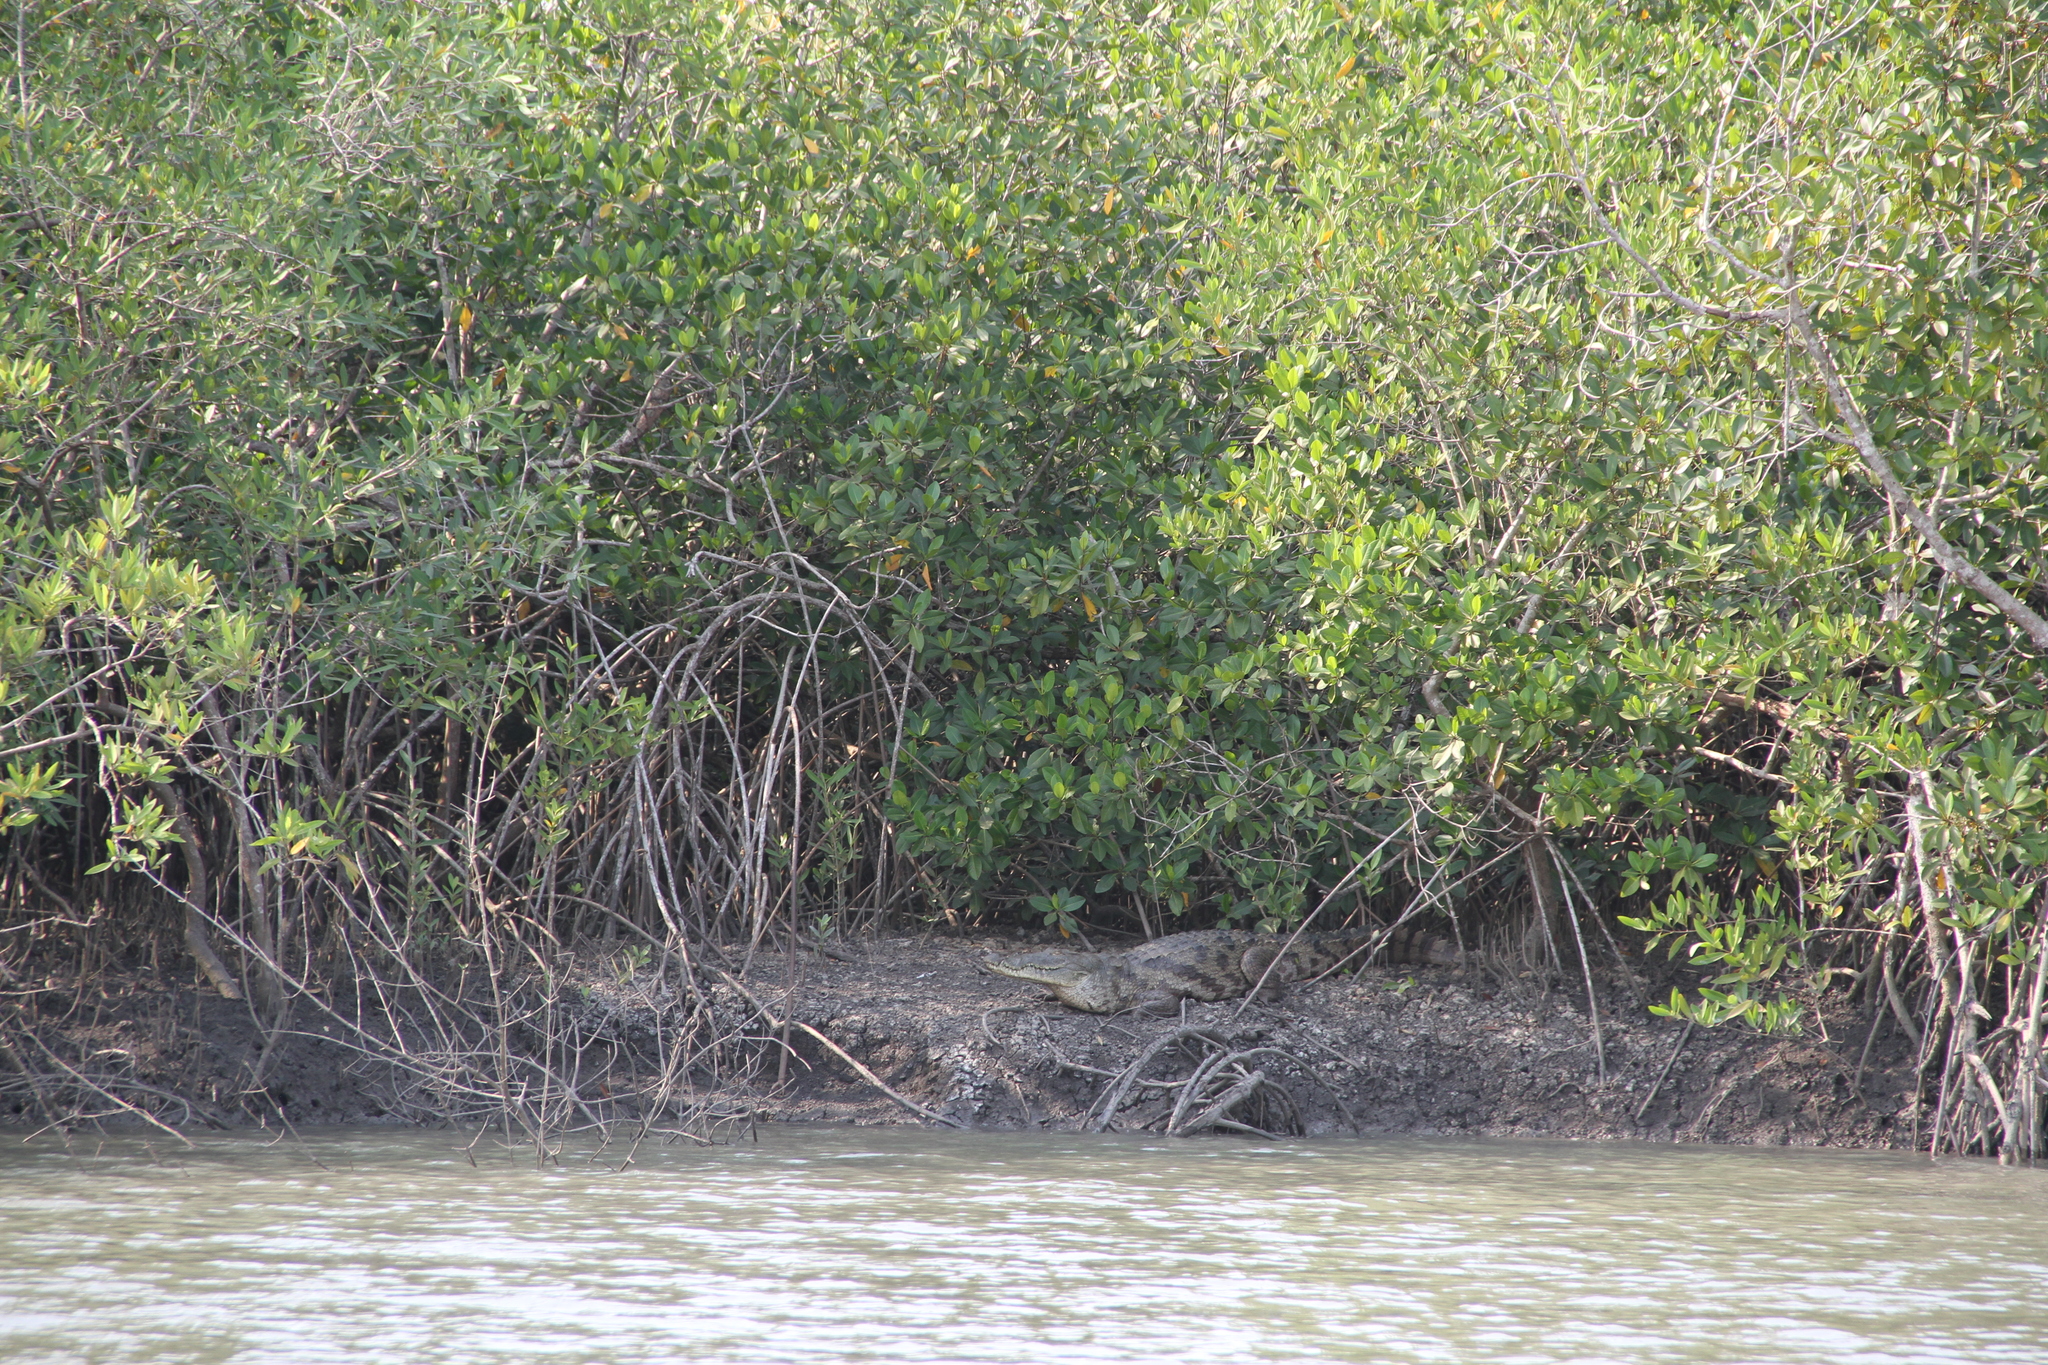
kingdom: Animalia
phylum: Chordata
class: Crocodylia
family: Crocodylidae
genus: Crocodylus
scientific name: Crocodylus suchus
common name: West african crocodile
